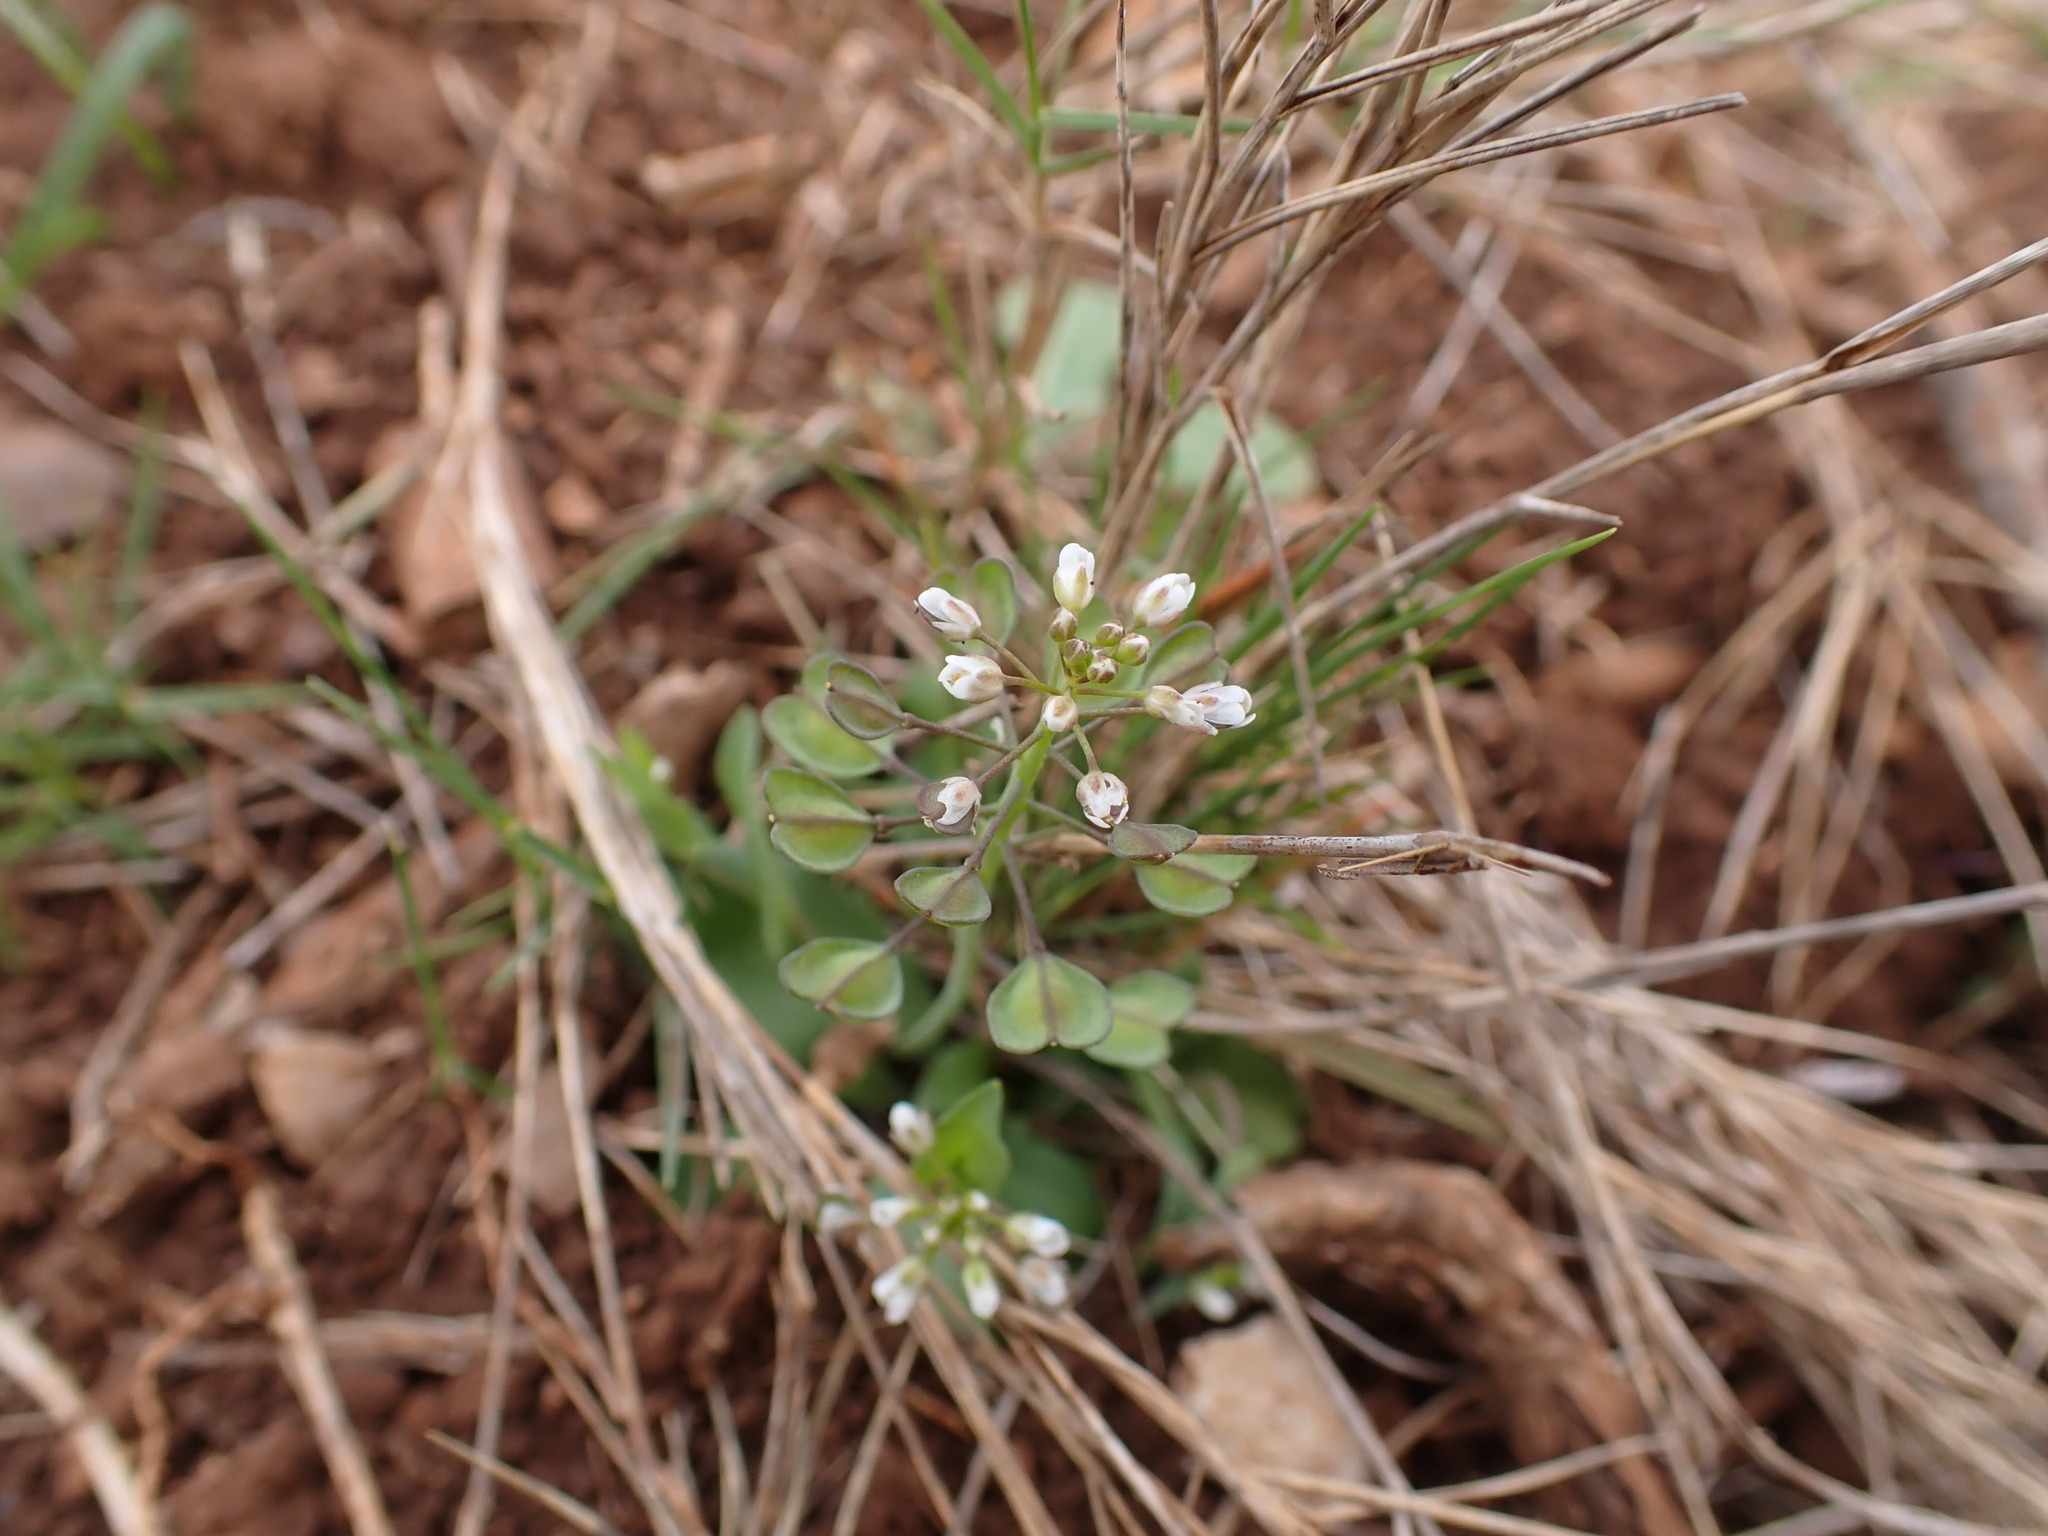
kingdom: Plantae
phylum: Tracheophyta
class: Magnoliopsida
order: Brassicales
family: Brassicaceae
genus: Noccaea
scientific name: Noccaea perfoliata
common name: Perfoliate pennycress
